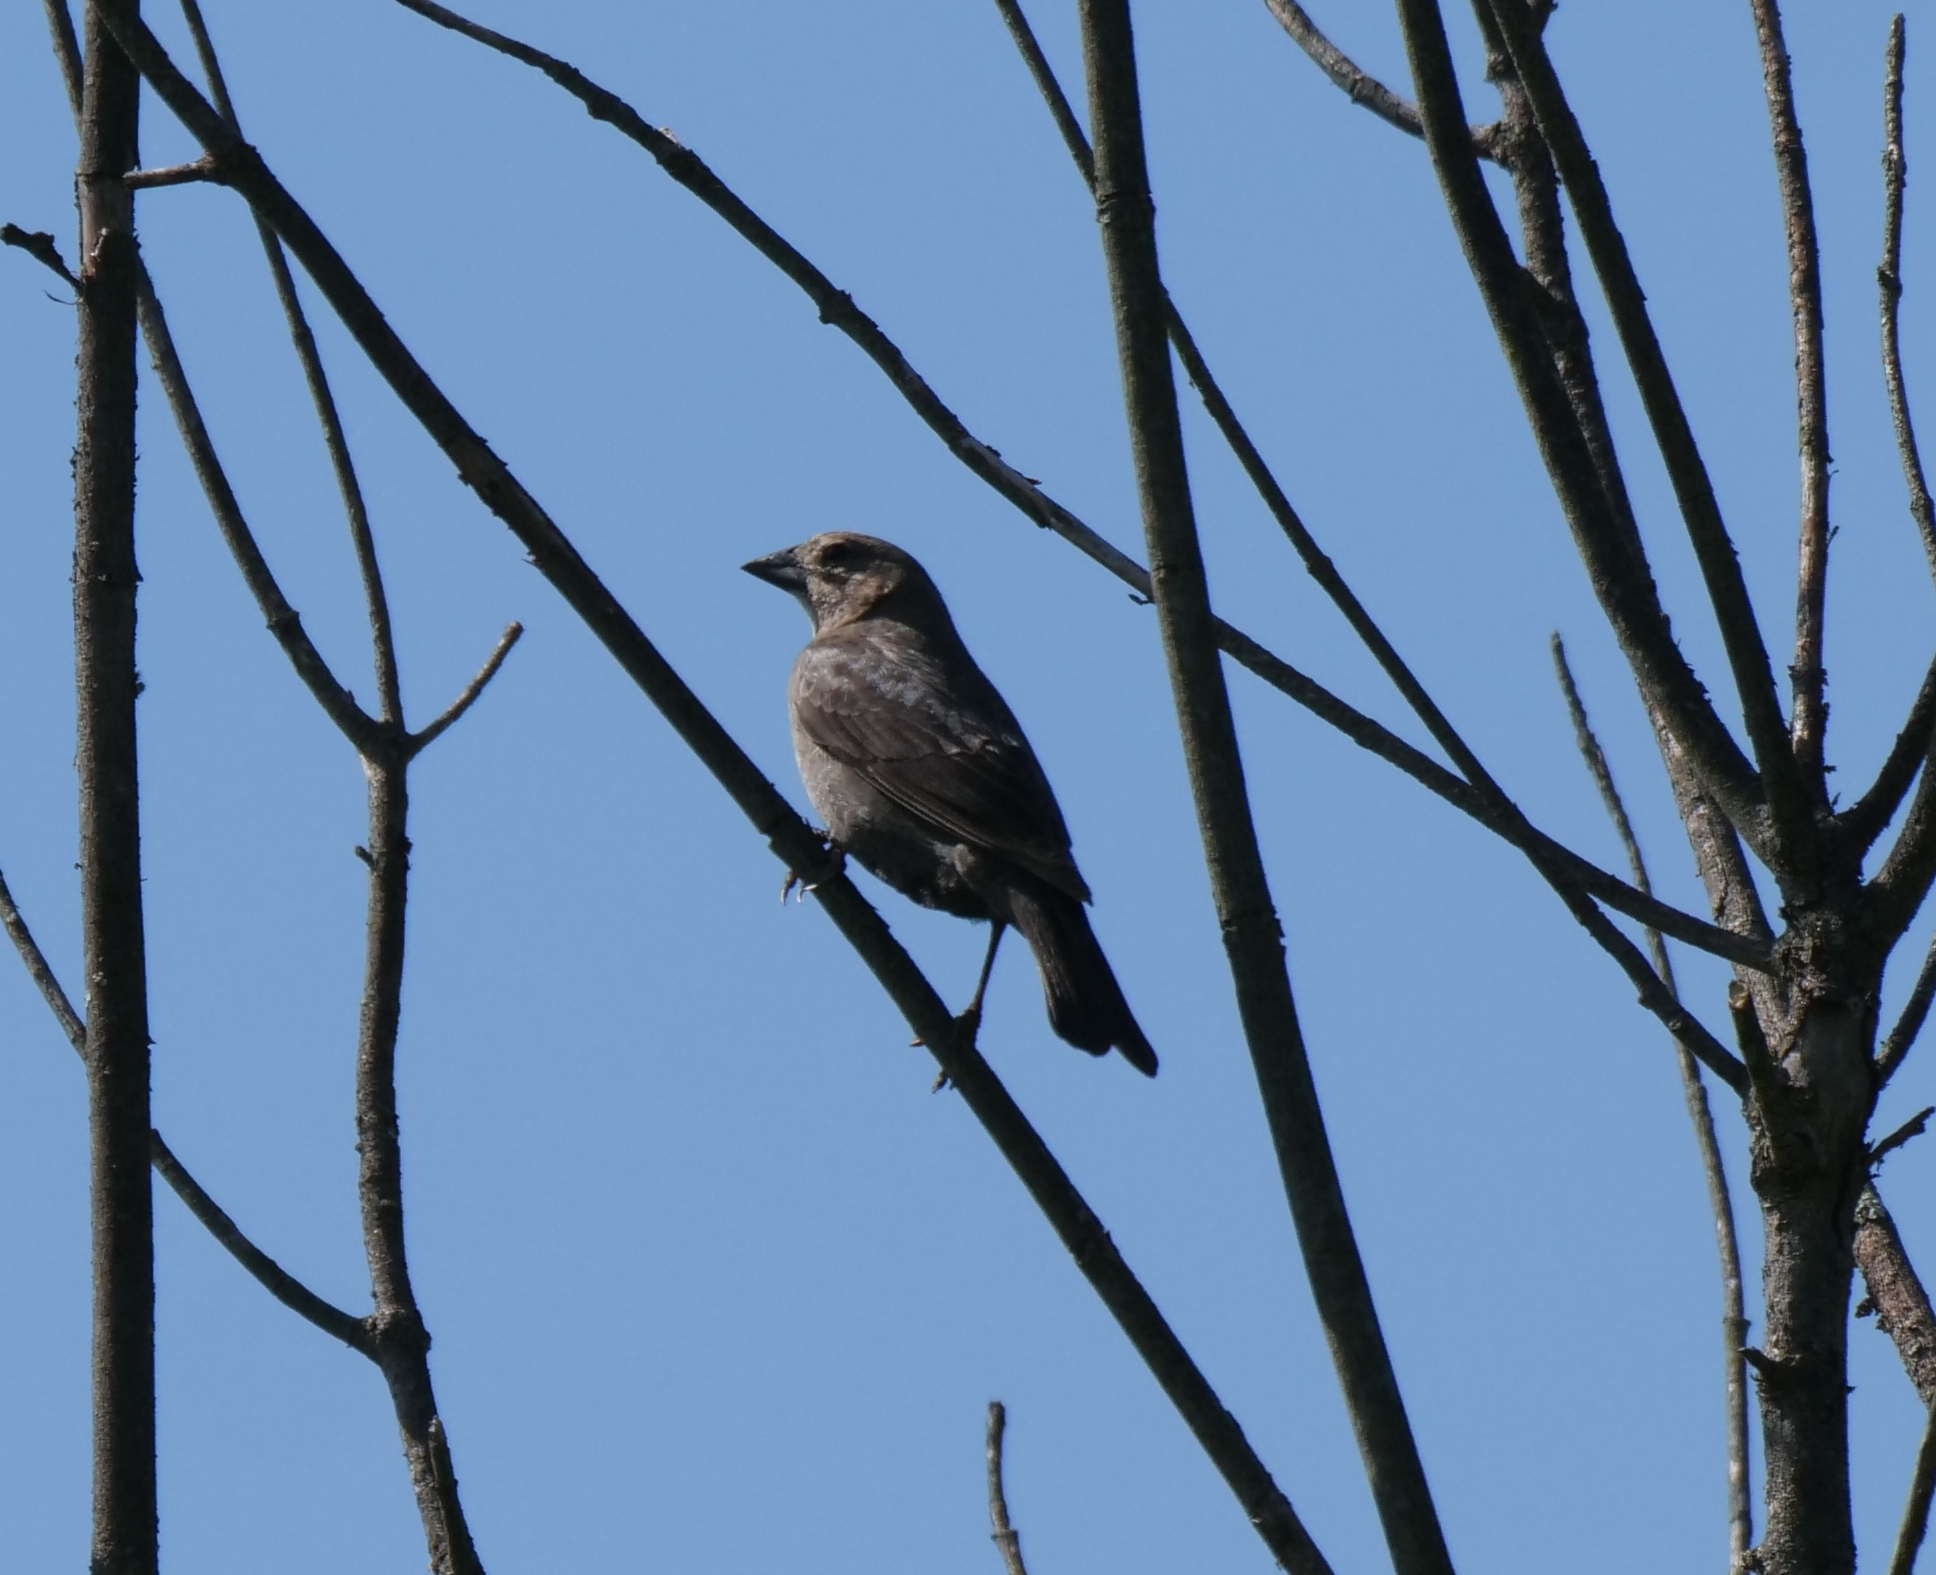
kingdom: Animalia
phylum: Chordata
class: Aves
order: Passeriformes
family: Icteridae
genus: Molothrus
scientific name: Molothrus ater
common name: Brown-headed cowbird
